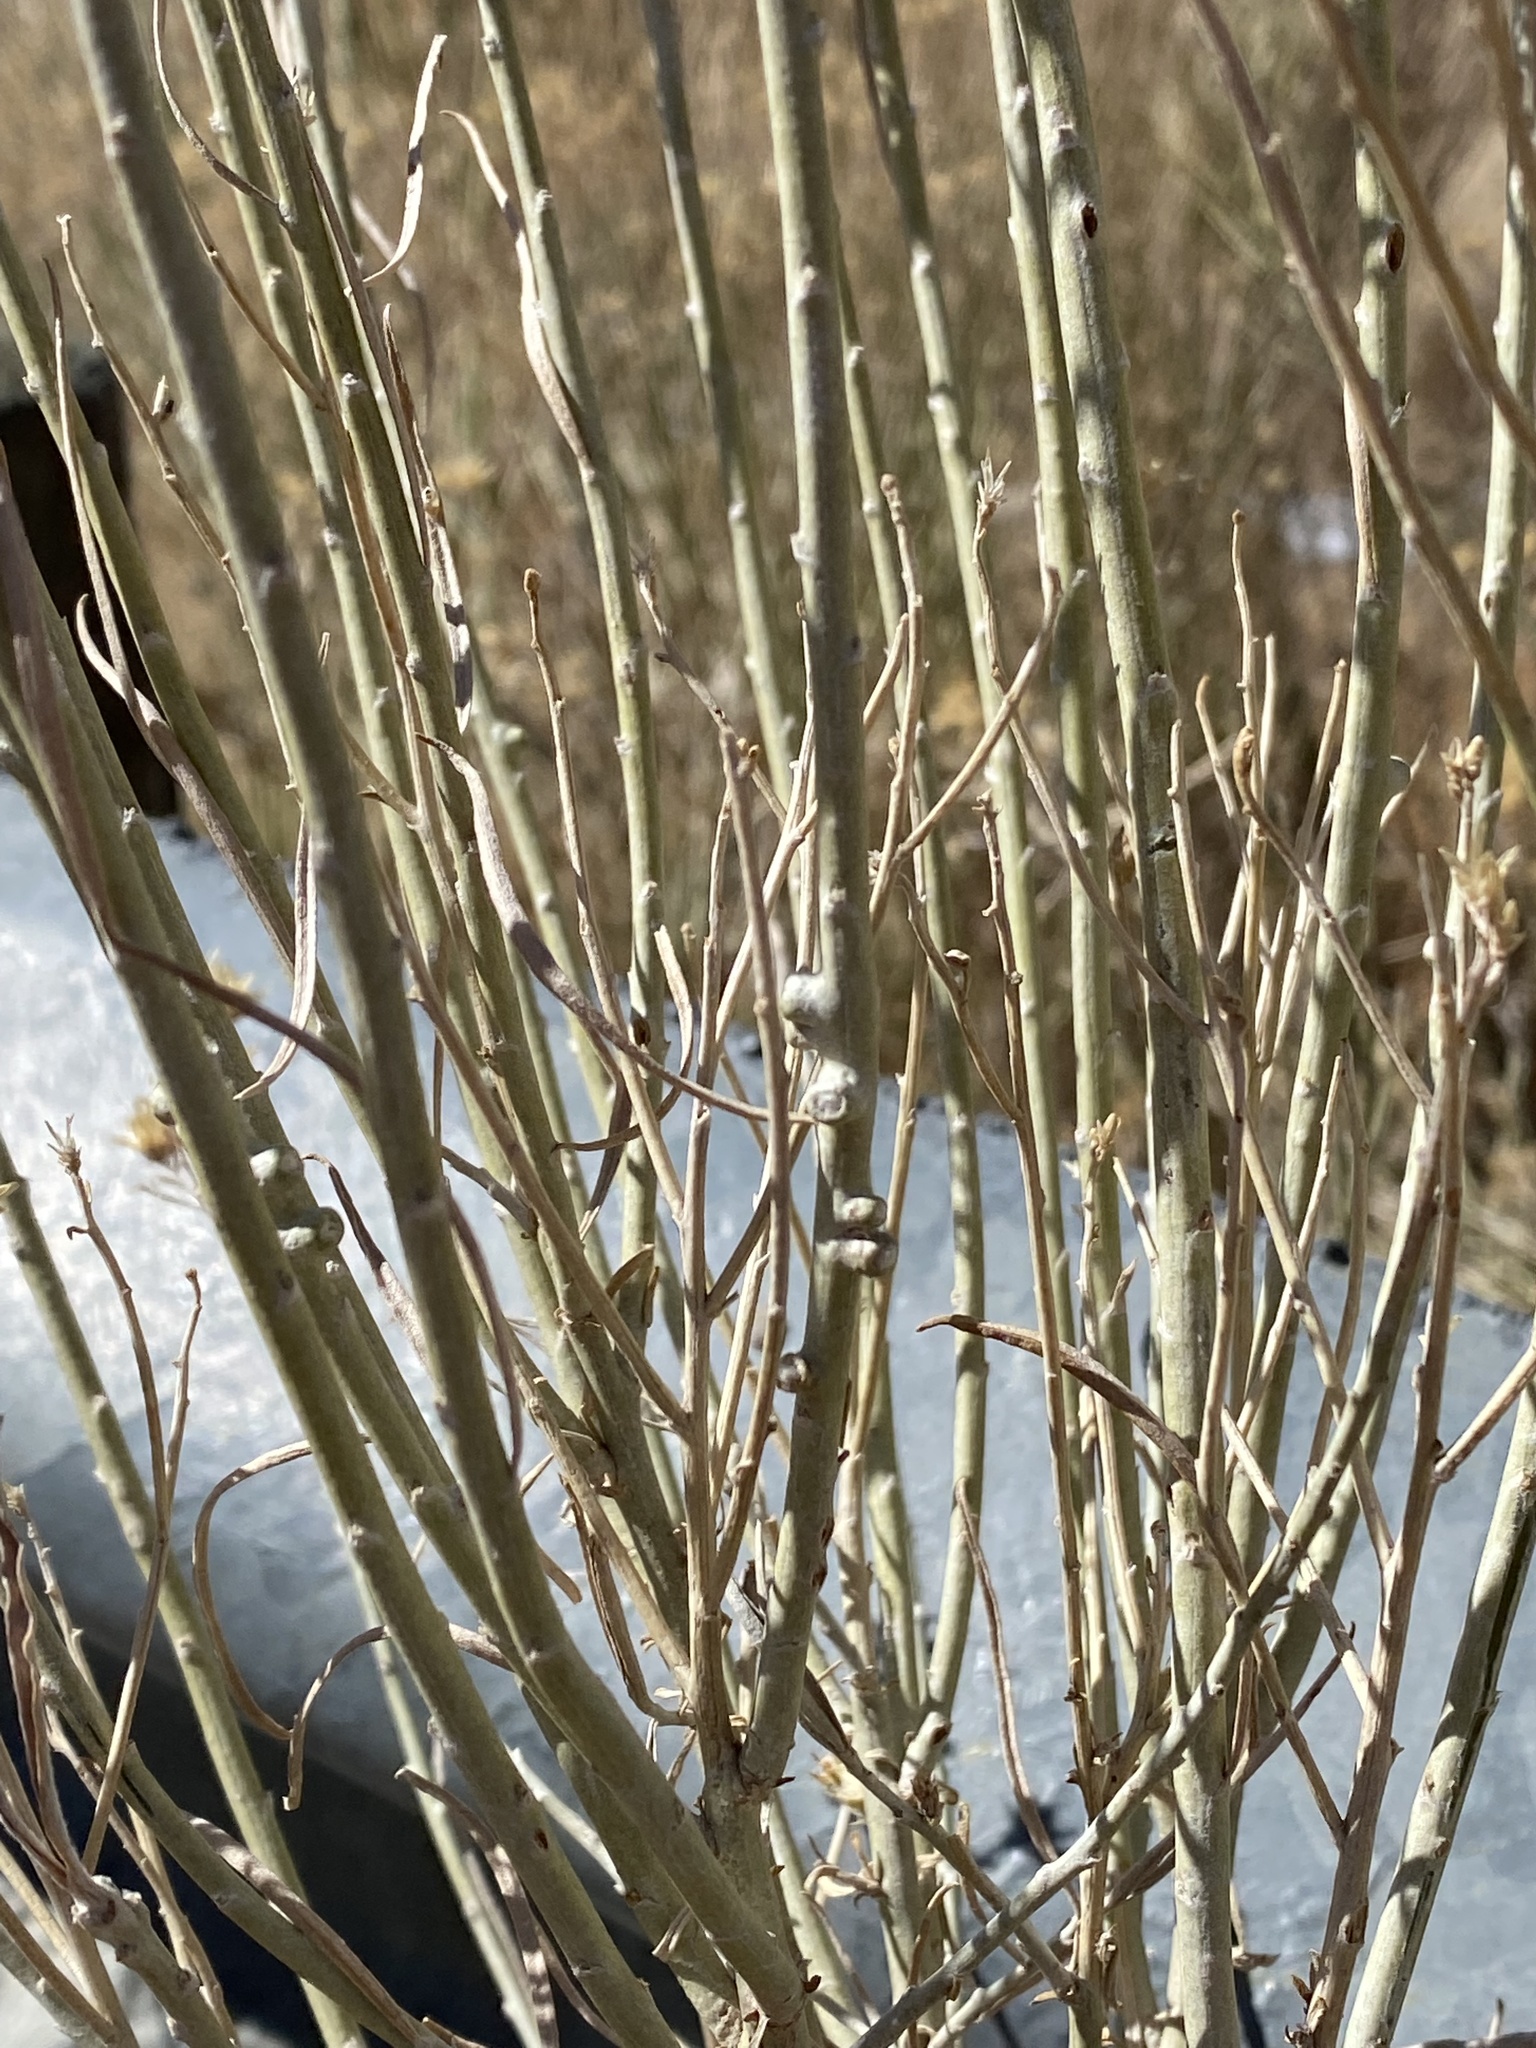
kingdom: Animalia
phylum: Arthropoda
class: Insecta
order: Diptera
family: Cecidomyiidae
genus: Rhopalomyia
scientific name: Rhopalomyia chrysothamni
